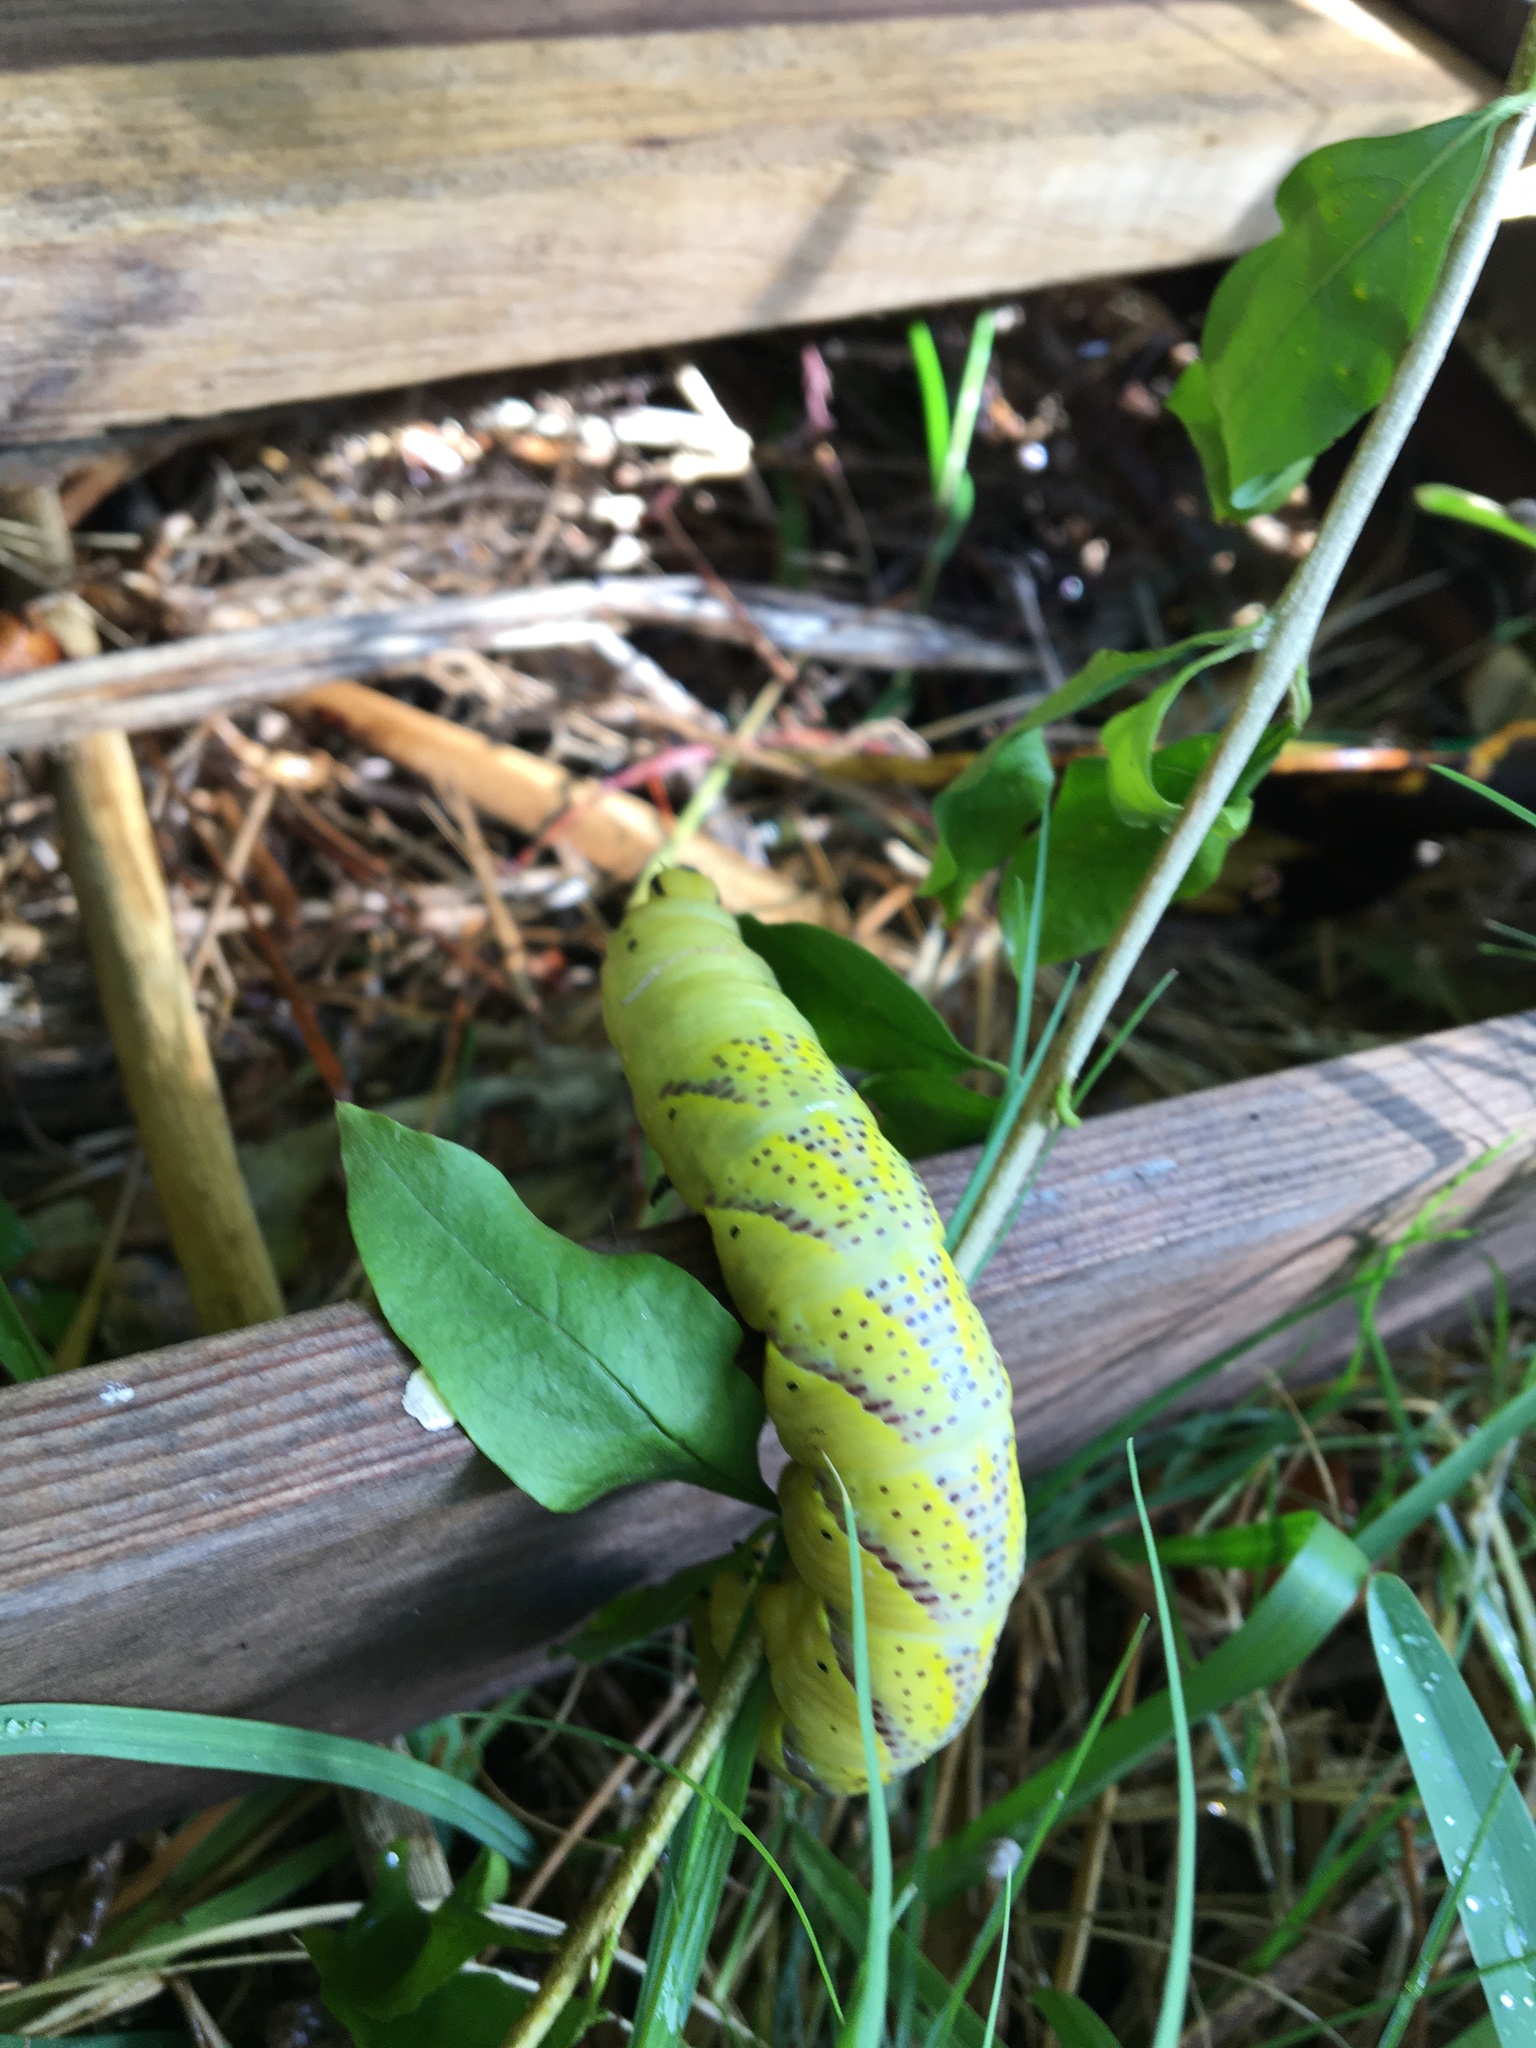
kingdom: Animalia
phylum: Arthropoda
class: Insecta
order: Lepidoptera
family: Sphingidae
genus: Acherontia
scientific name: Acherontia atropos
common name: Death's-head hawk moth
